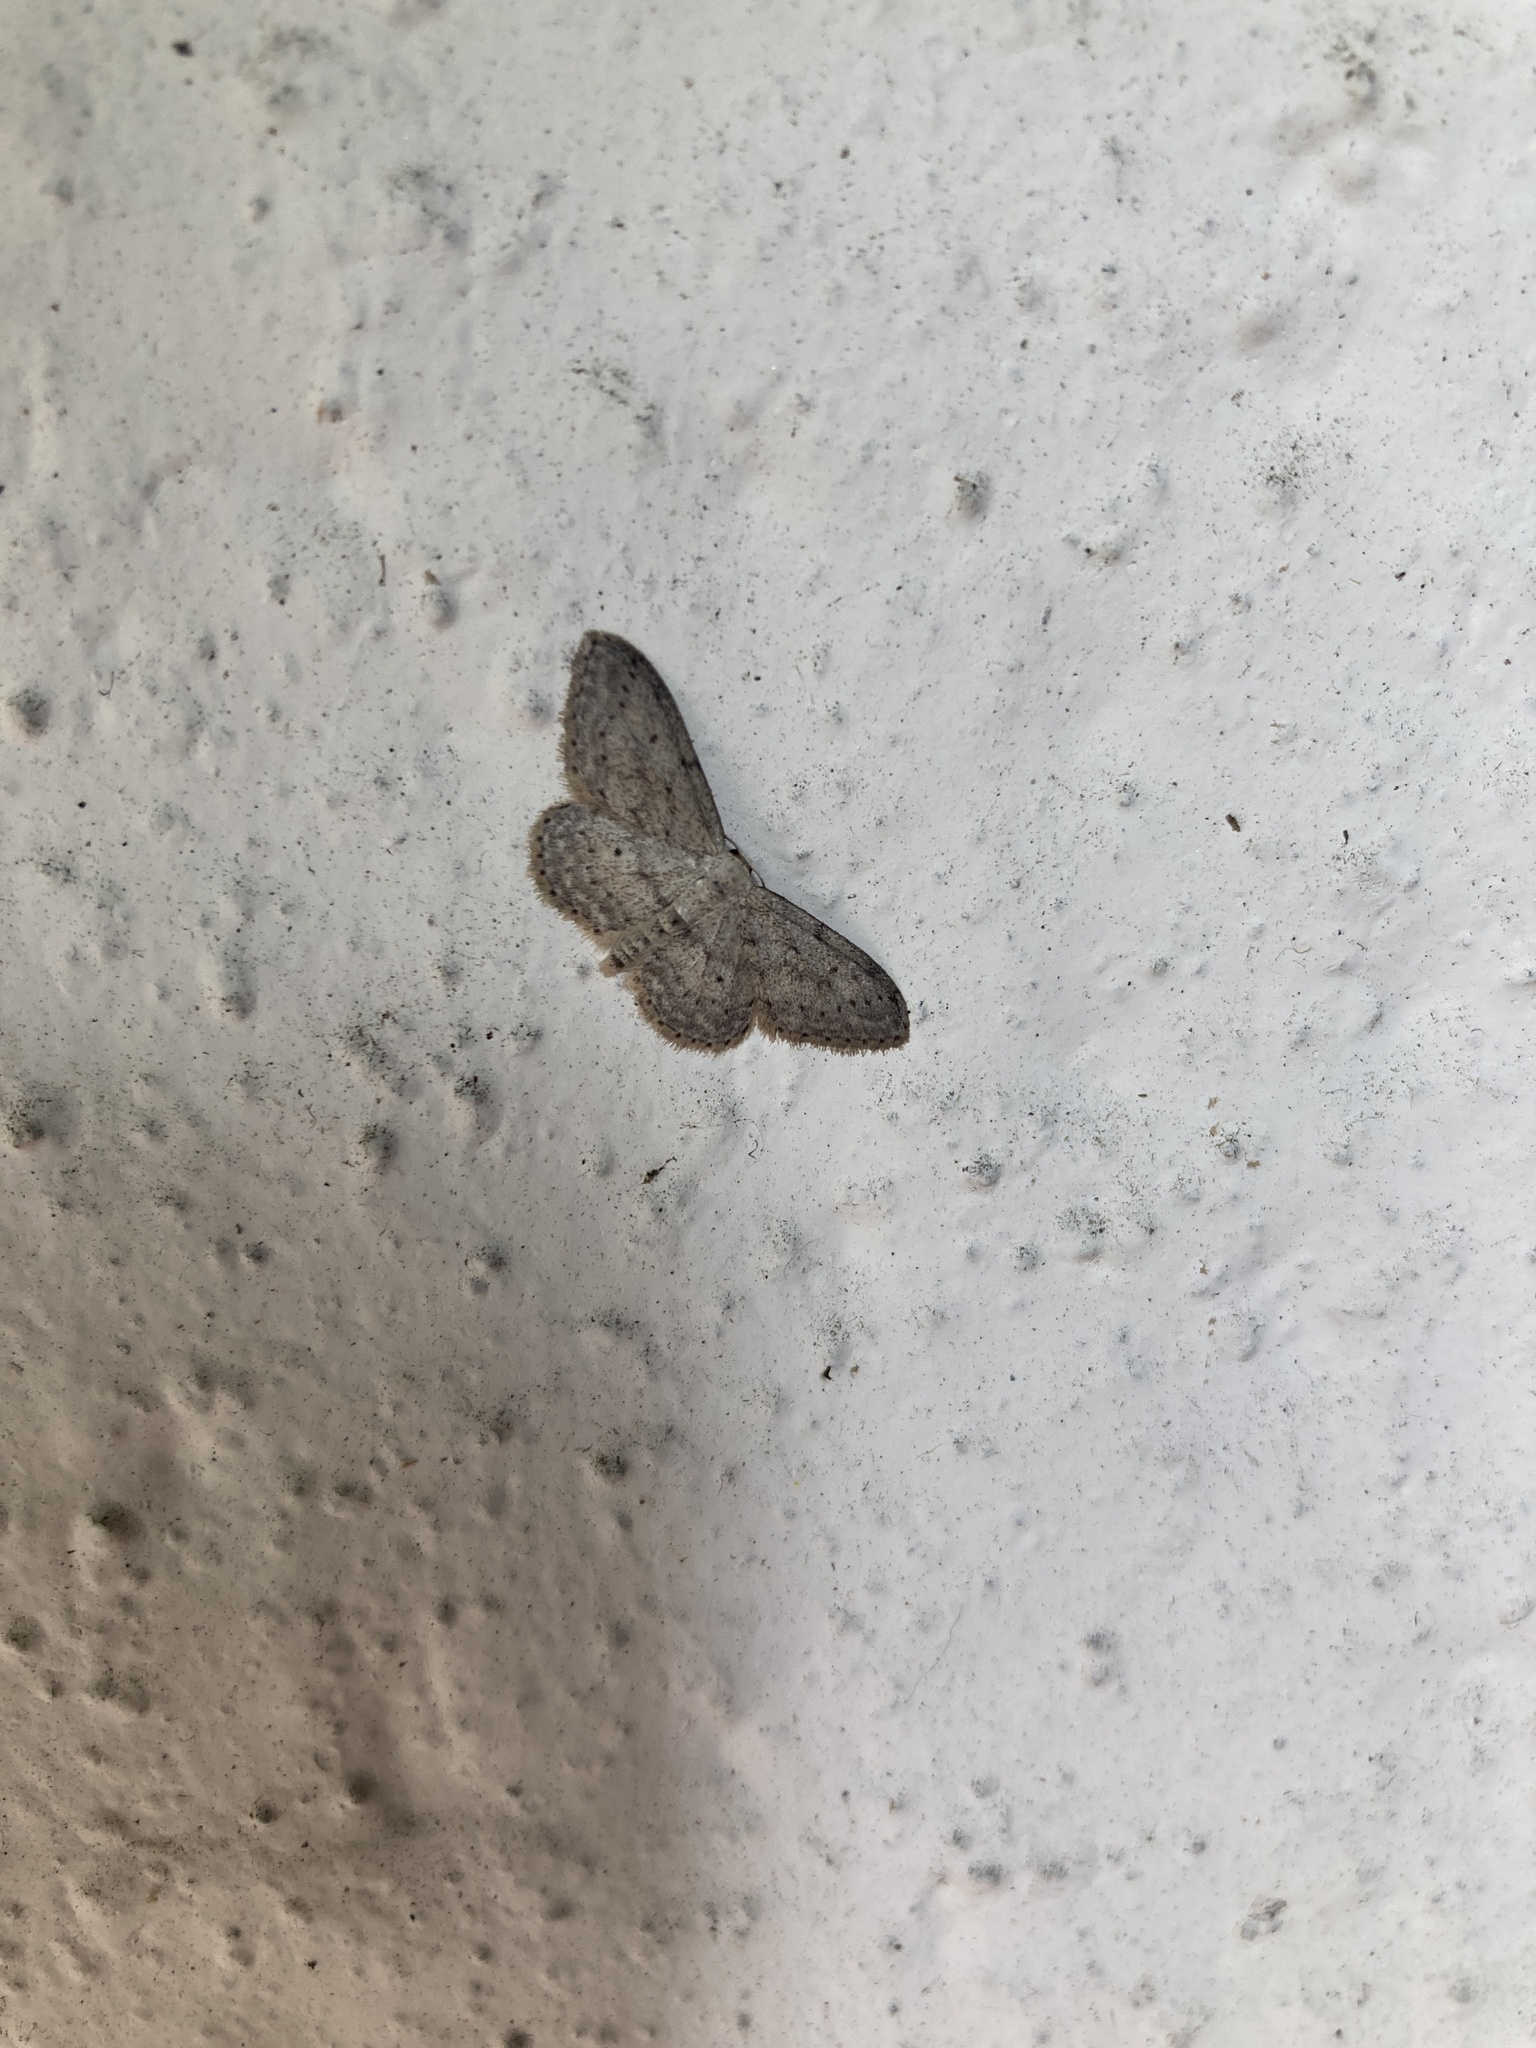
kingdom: Animalia
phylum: Arthropoda
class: Insecta
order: Lepidoptera
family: Geometridae
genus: Idaea
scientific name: Idaea seriata
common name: Small dusty wave
